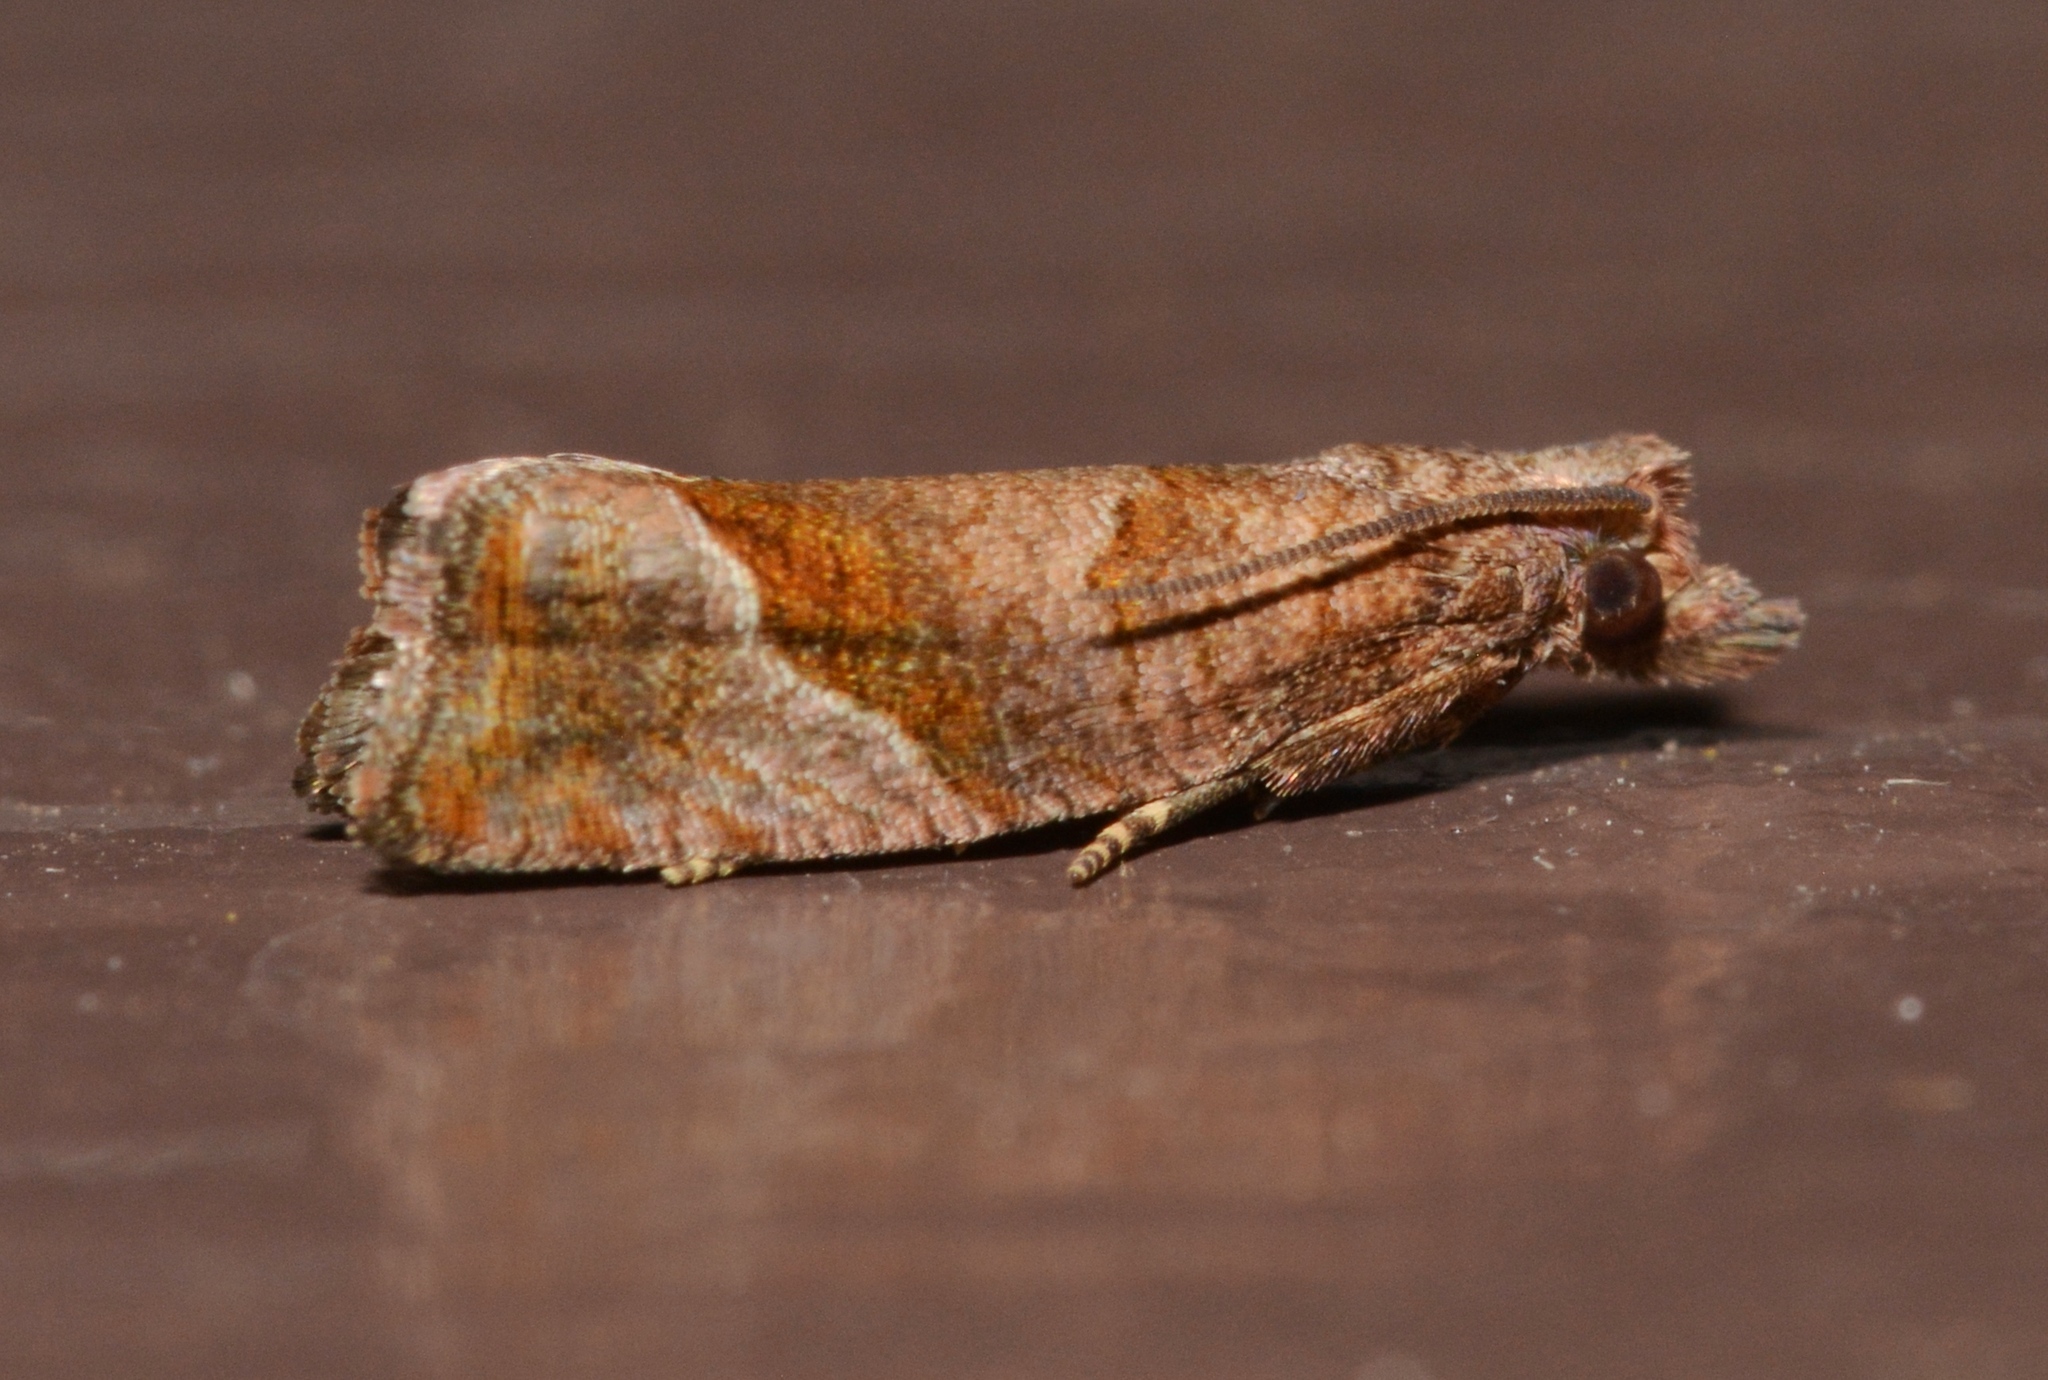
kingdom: Animalia
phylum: Arthropoda
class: Insecta
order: Lepidoptera
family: Tortricidae
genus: Pelochrista
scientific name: Pelochrista derelicta
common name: Derelict pelochrista moth
